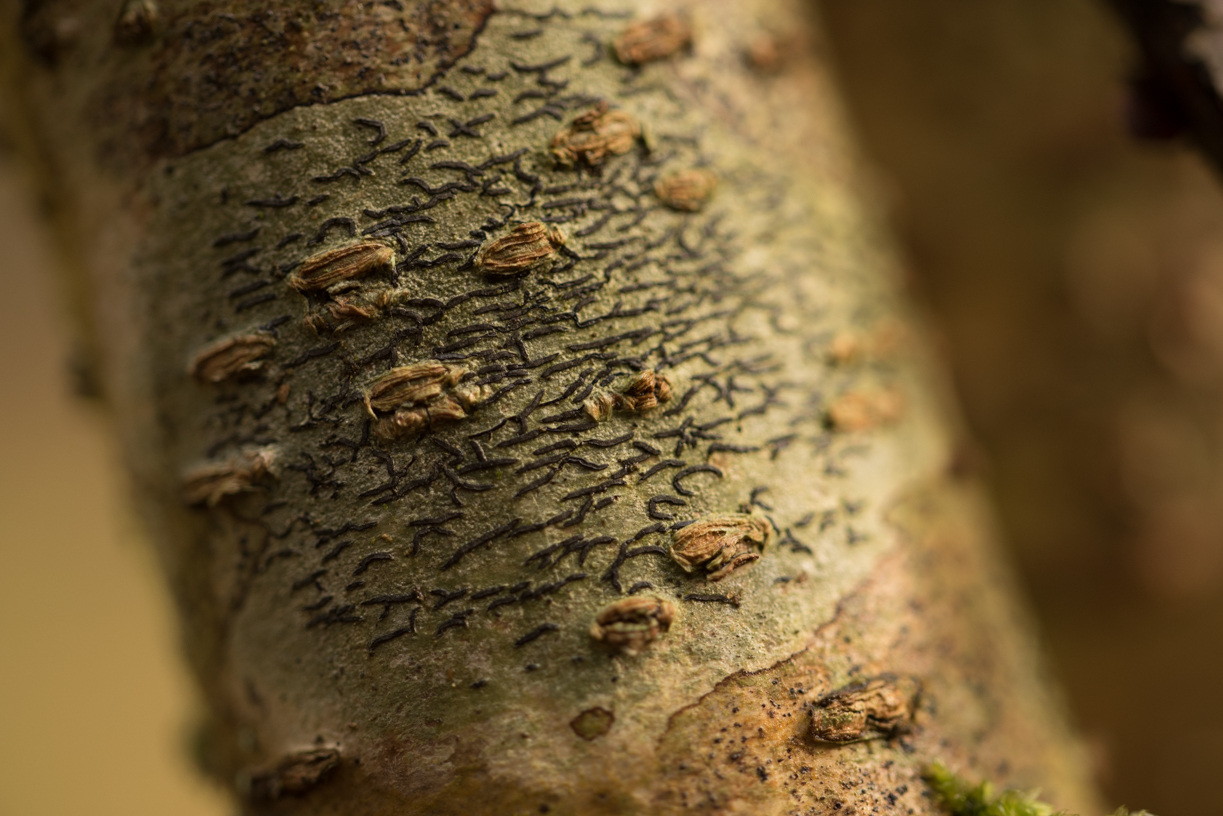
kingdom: Fungi
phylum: Ascomycota
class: Lecanoromycetes
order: Ostropales
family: Graphidaceae
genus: Graphis
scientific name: Graphis scripta
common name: Script lichen
